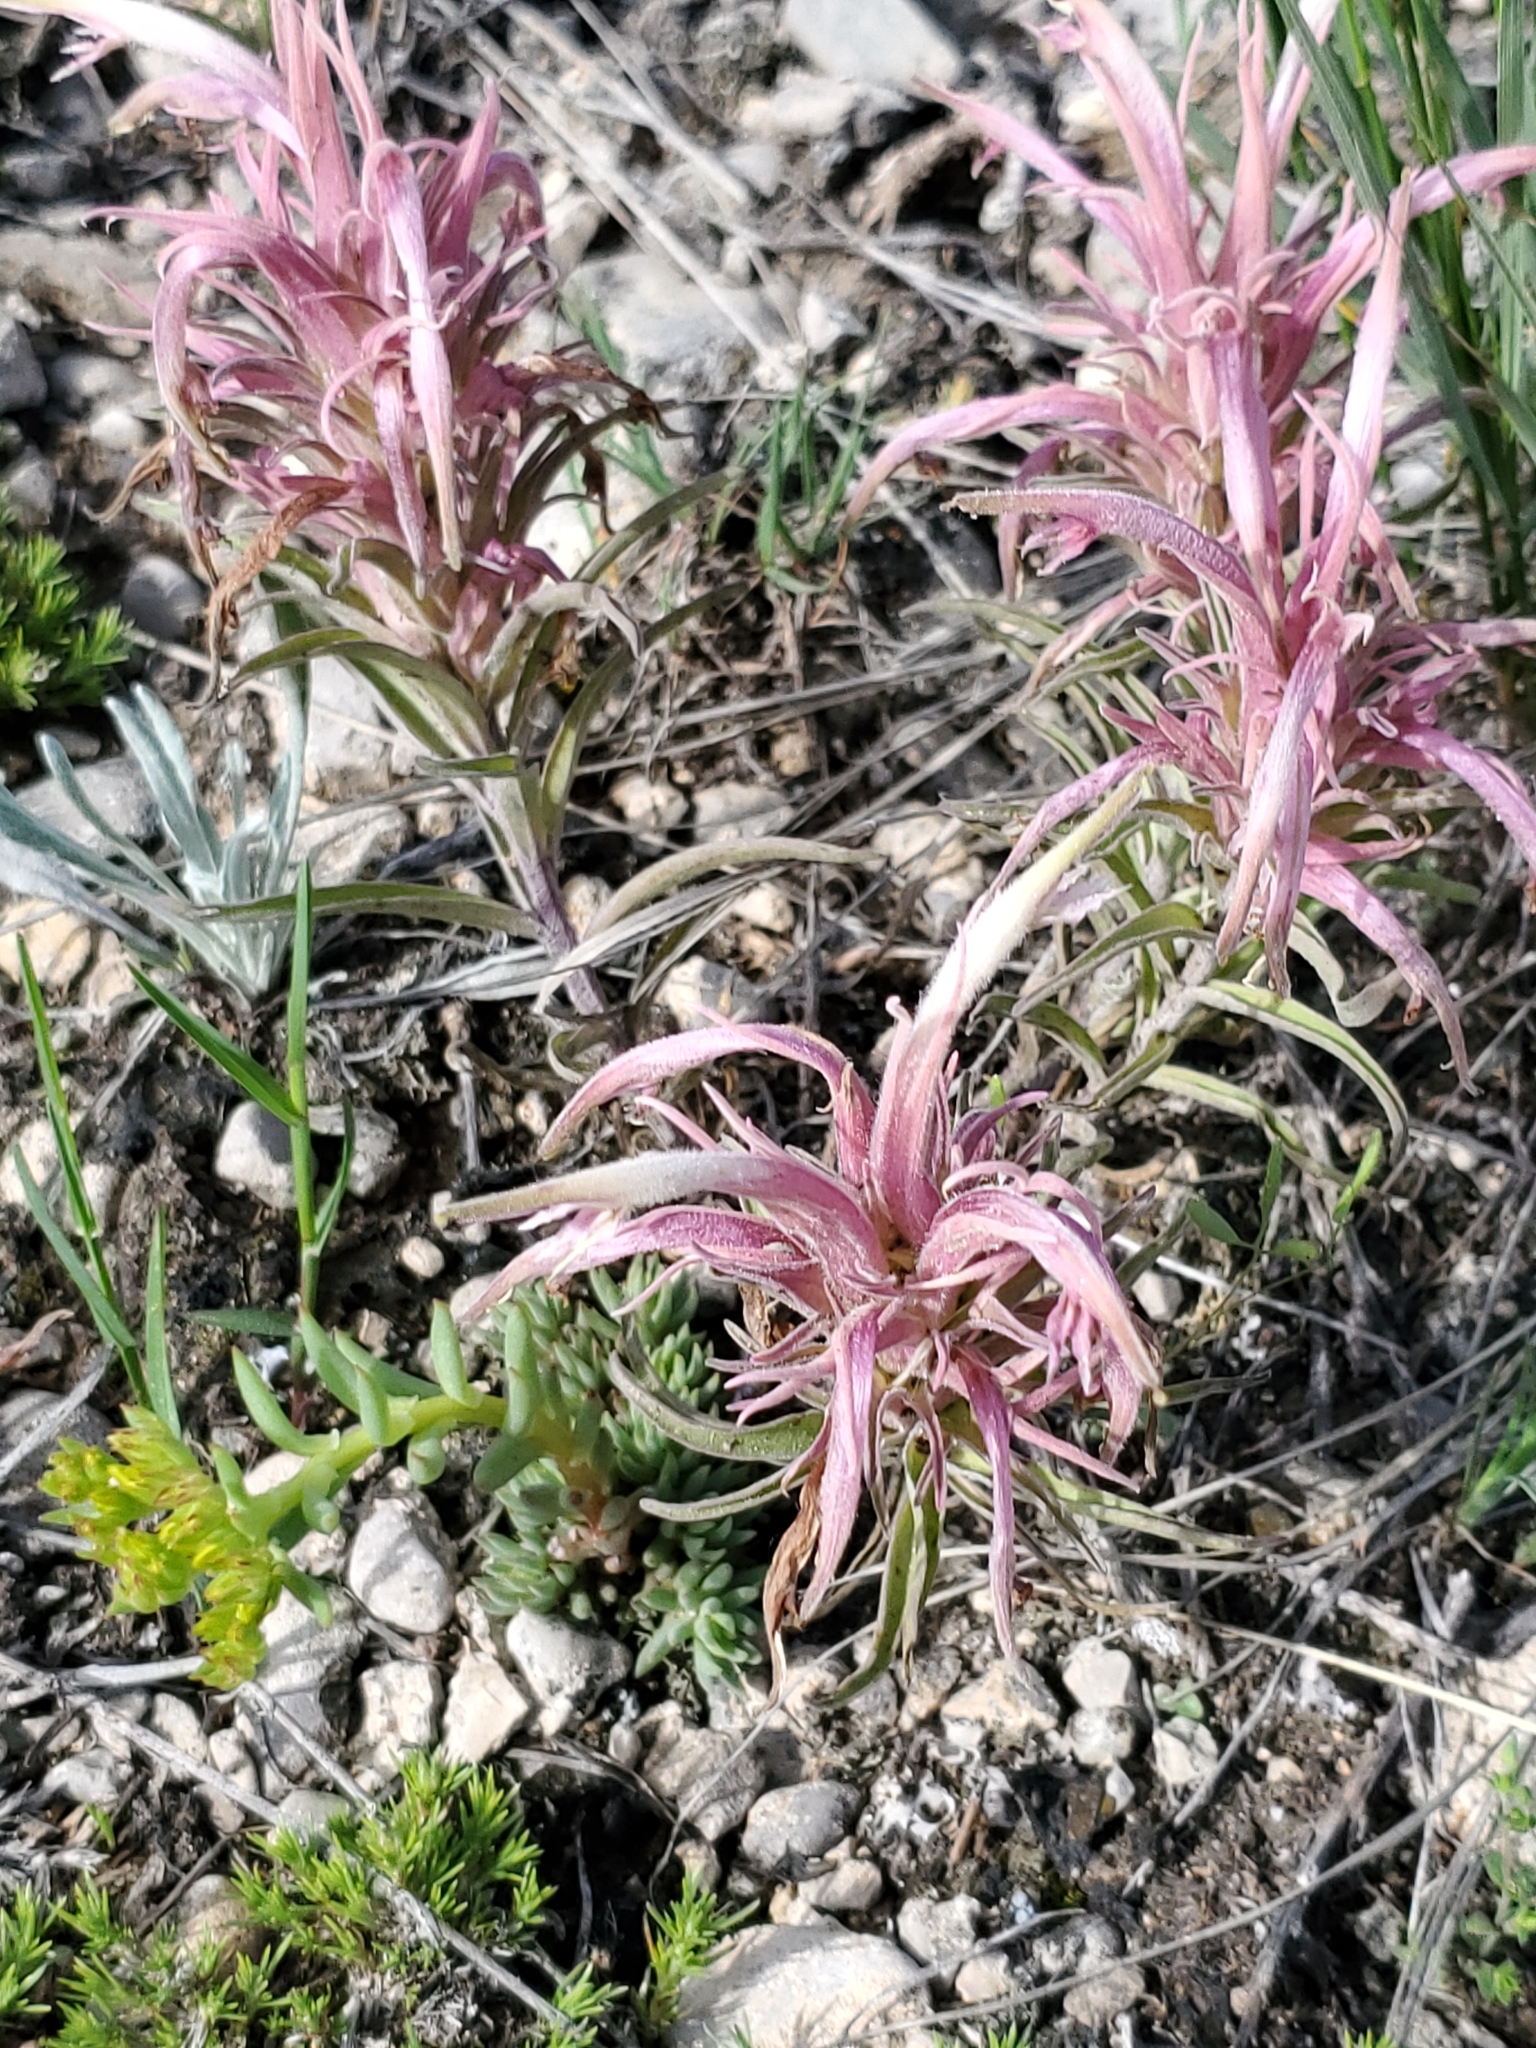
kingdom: Plantae
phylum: Tracheophyta
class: Magnoliopsida
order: Lamiales
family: Orobanchaceae
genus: Castilleja
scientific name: Castilleja sessiliflora
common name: Downy paintbrush
